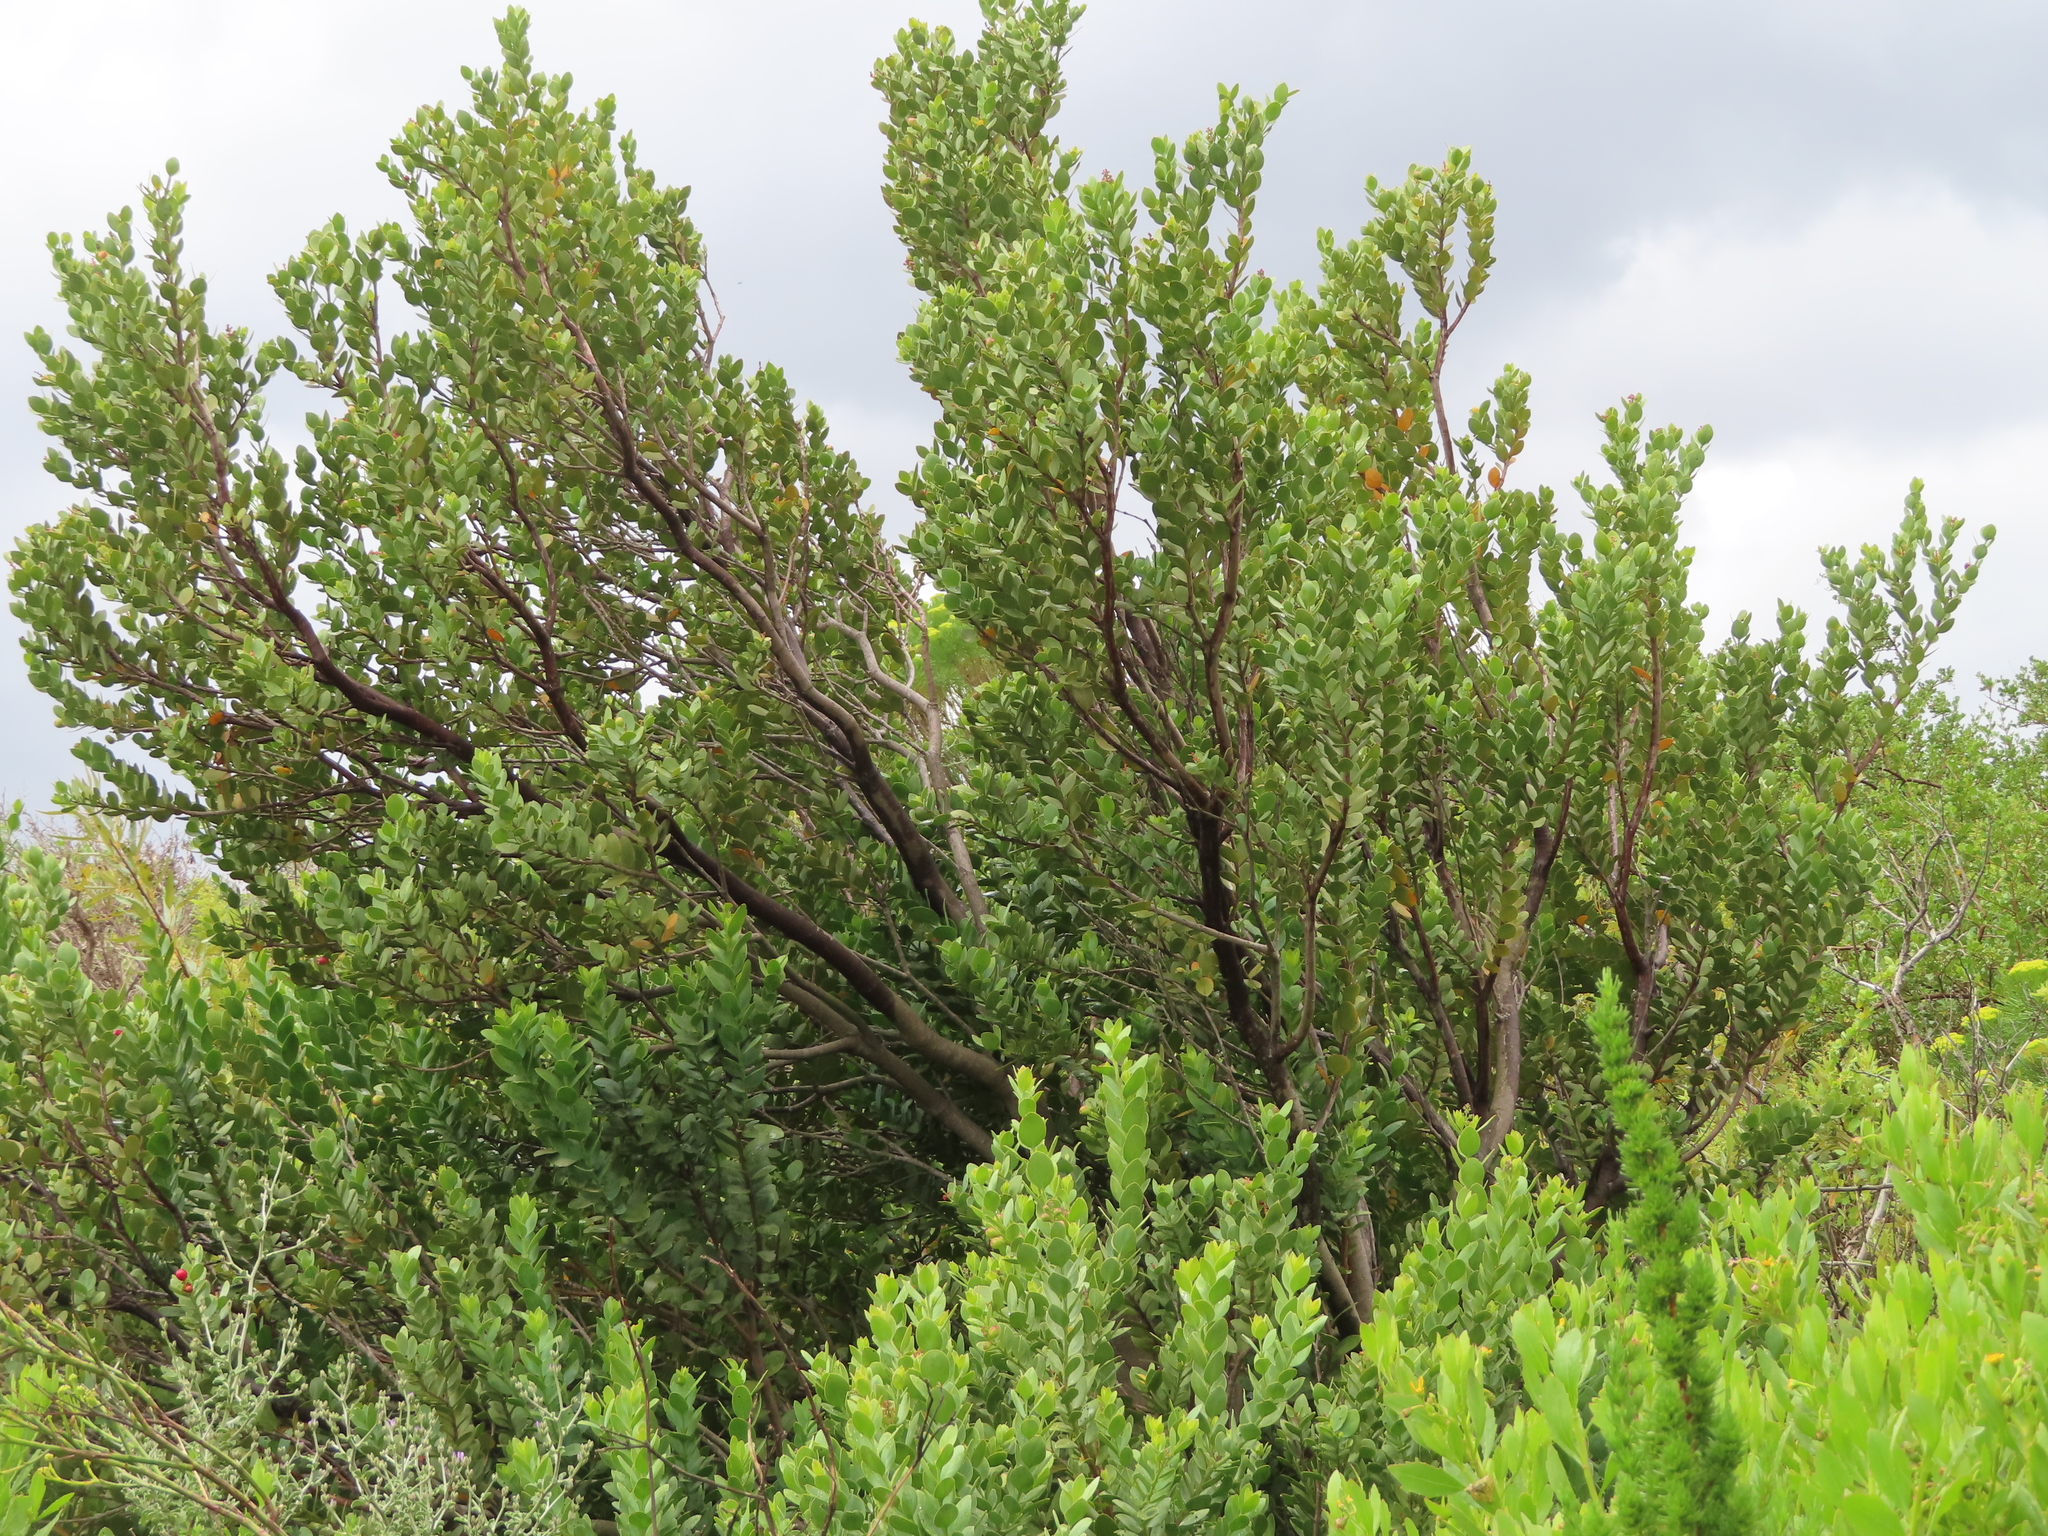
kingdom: Plantae
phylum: Tracheophyta
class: Magnoliopsida
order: Santalales
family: Santalaceae
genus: Osyris
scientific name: Osyris compressa
